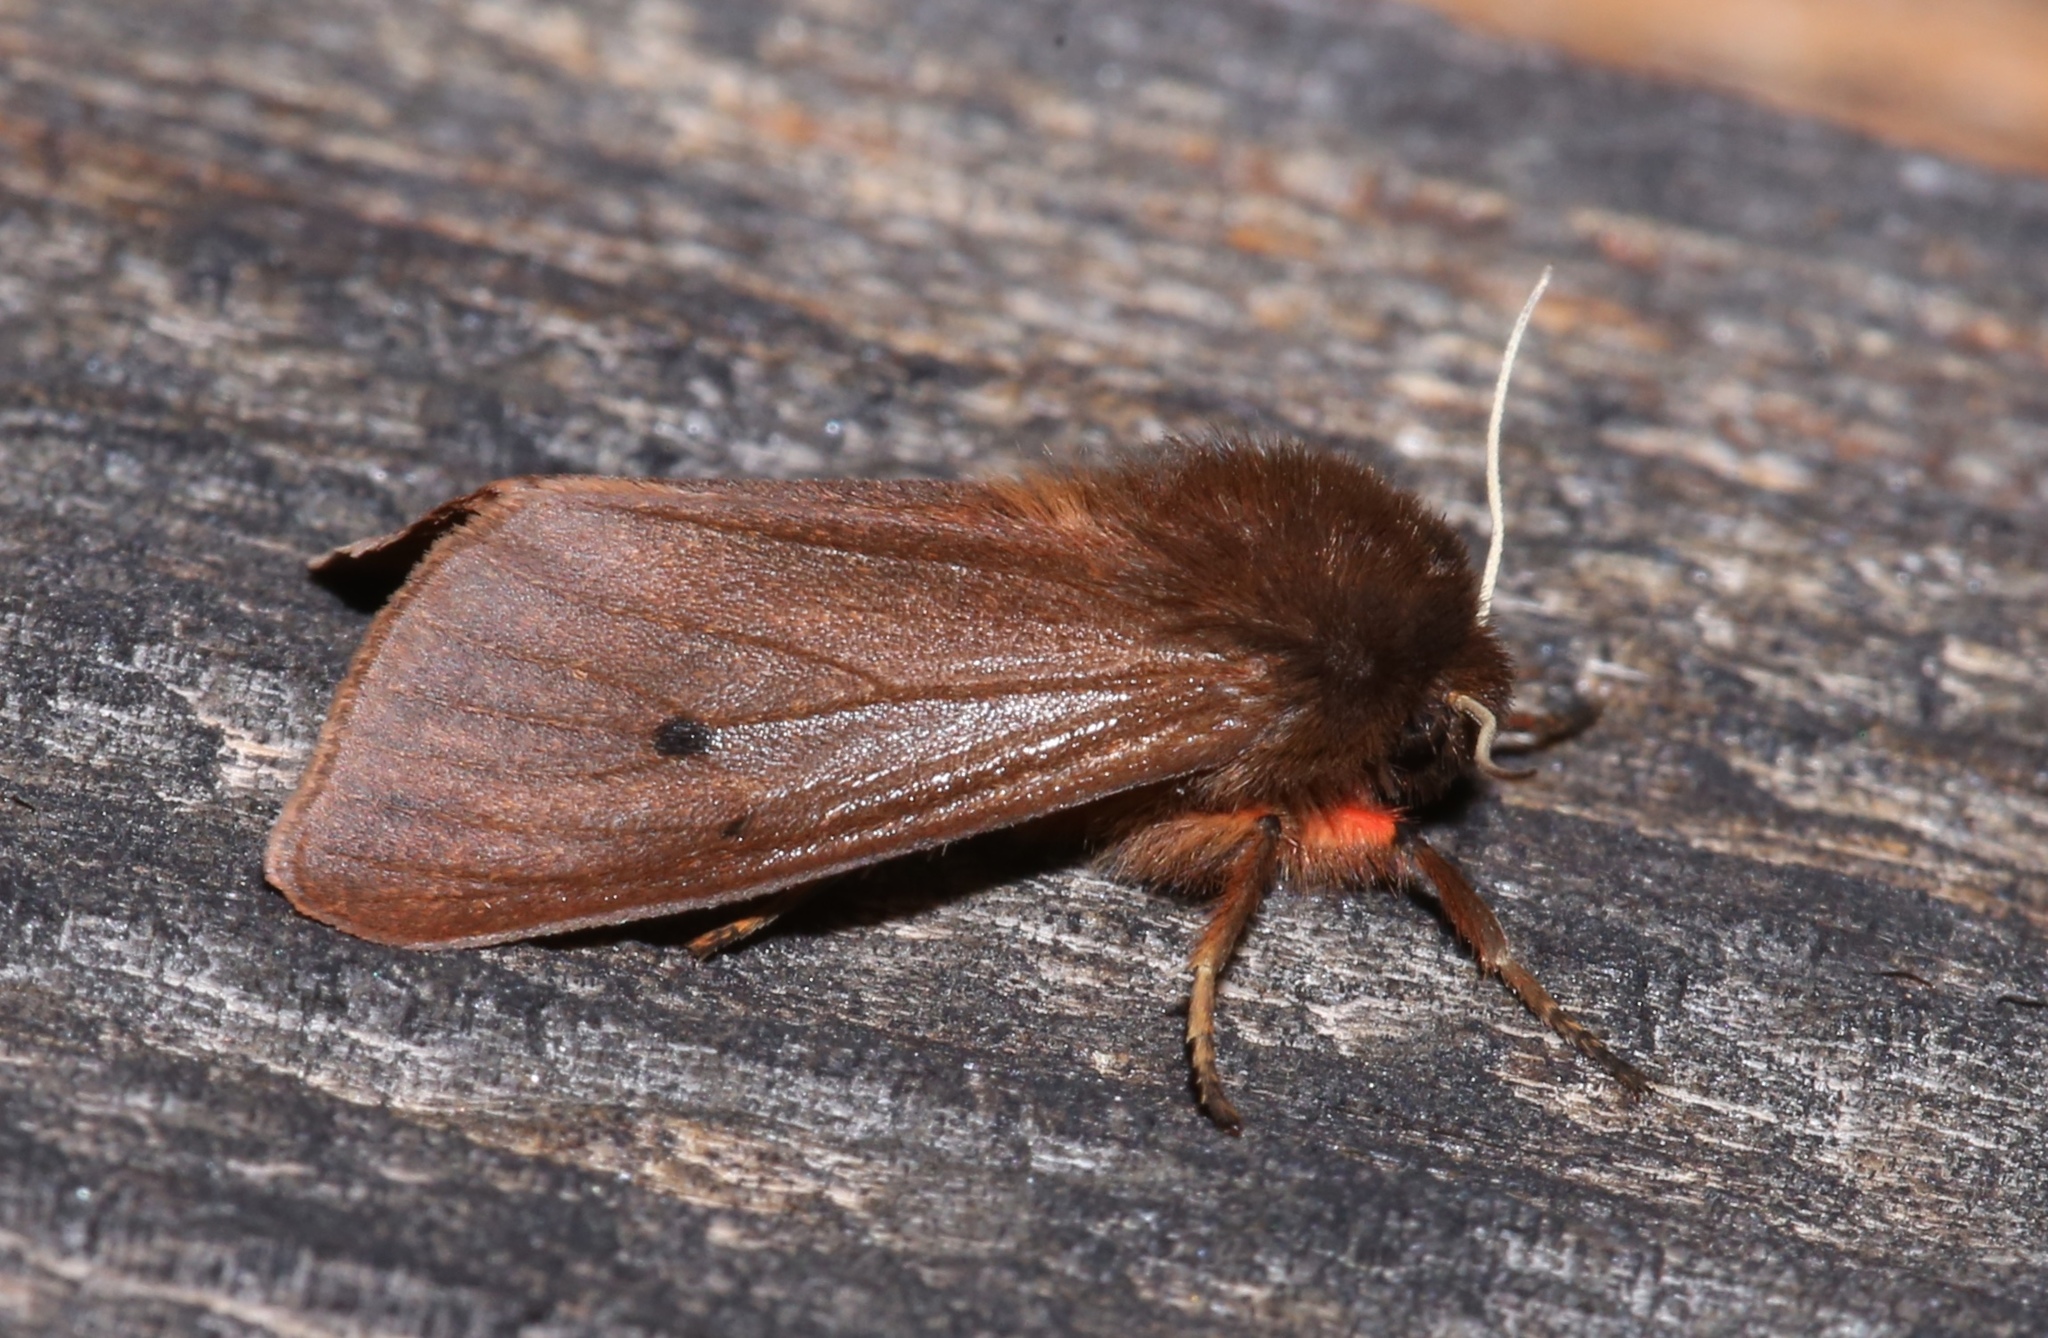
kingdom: Animalia
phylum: Arthropoda
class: Insecta
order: Lepidoptera
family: Erebidae
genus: Phragmatobia
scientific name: Phragmatobia fuliginosa
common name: Ruby tiger
